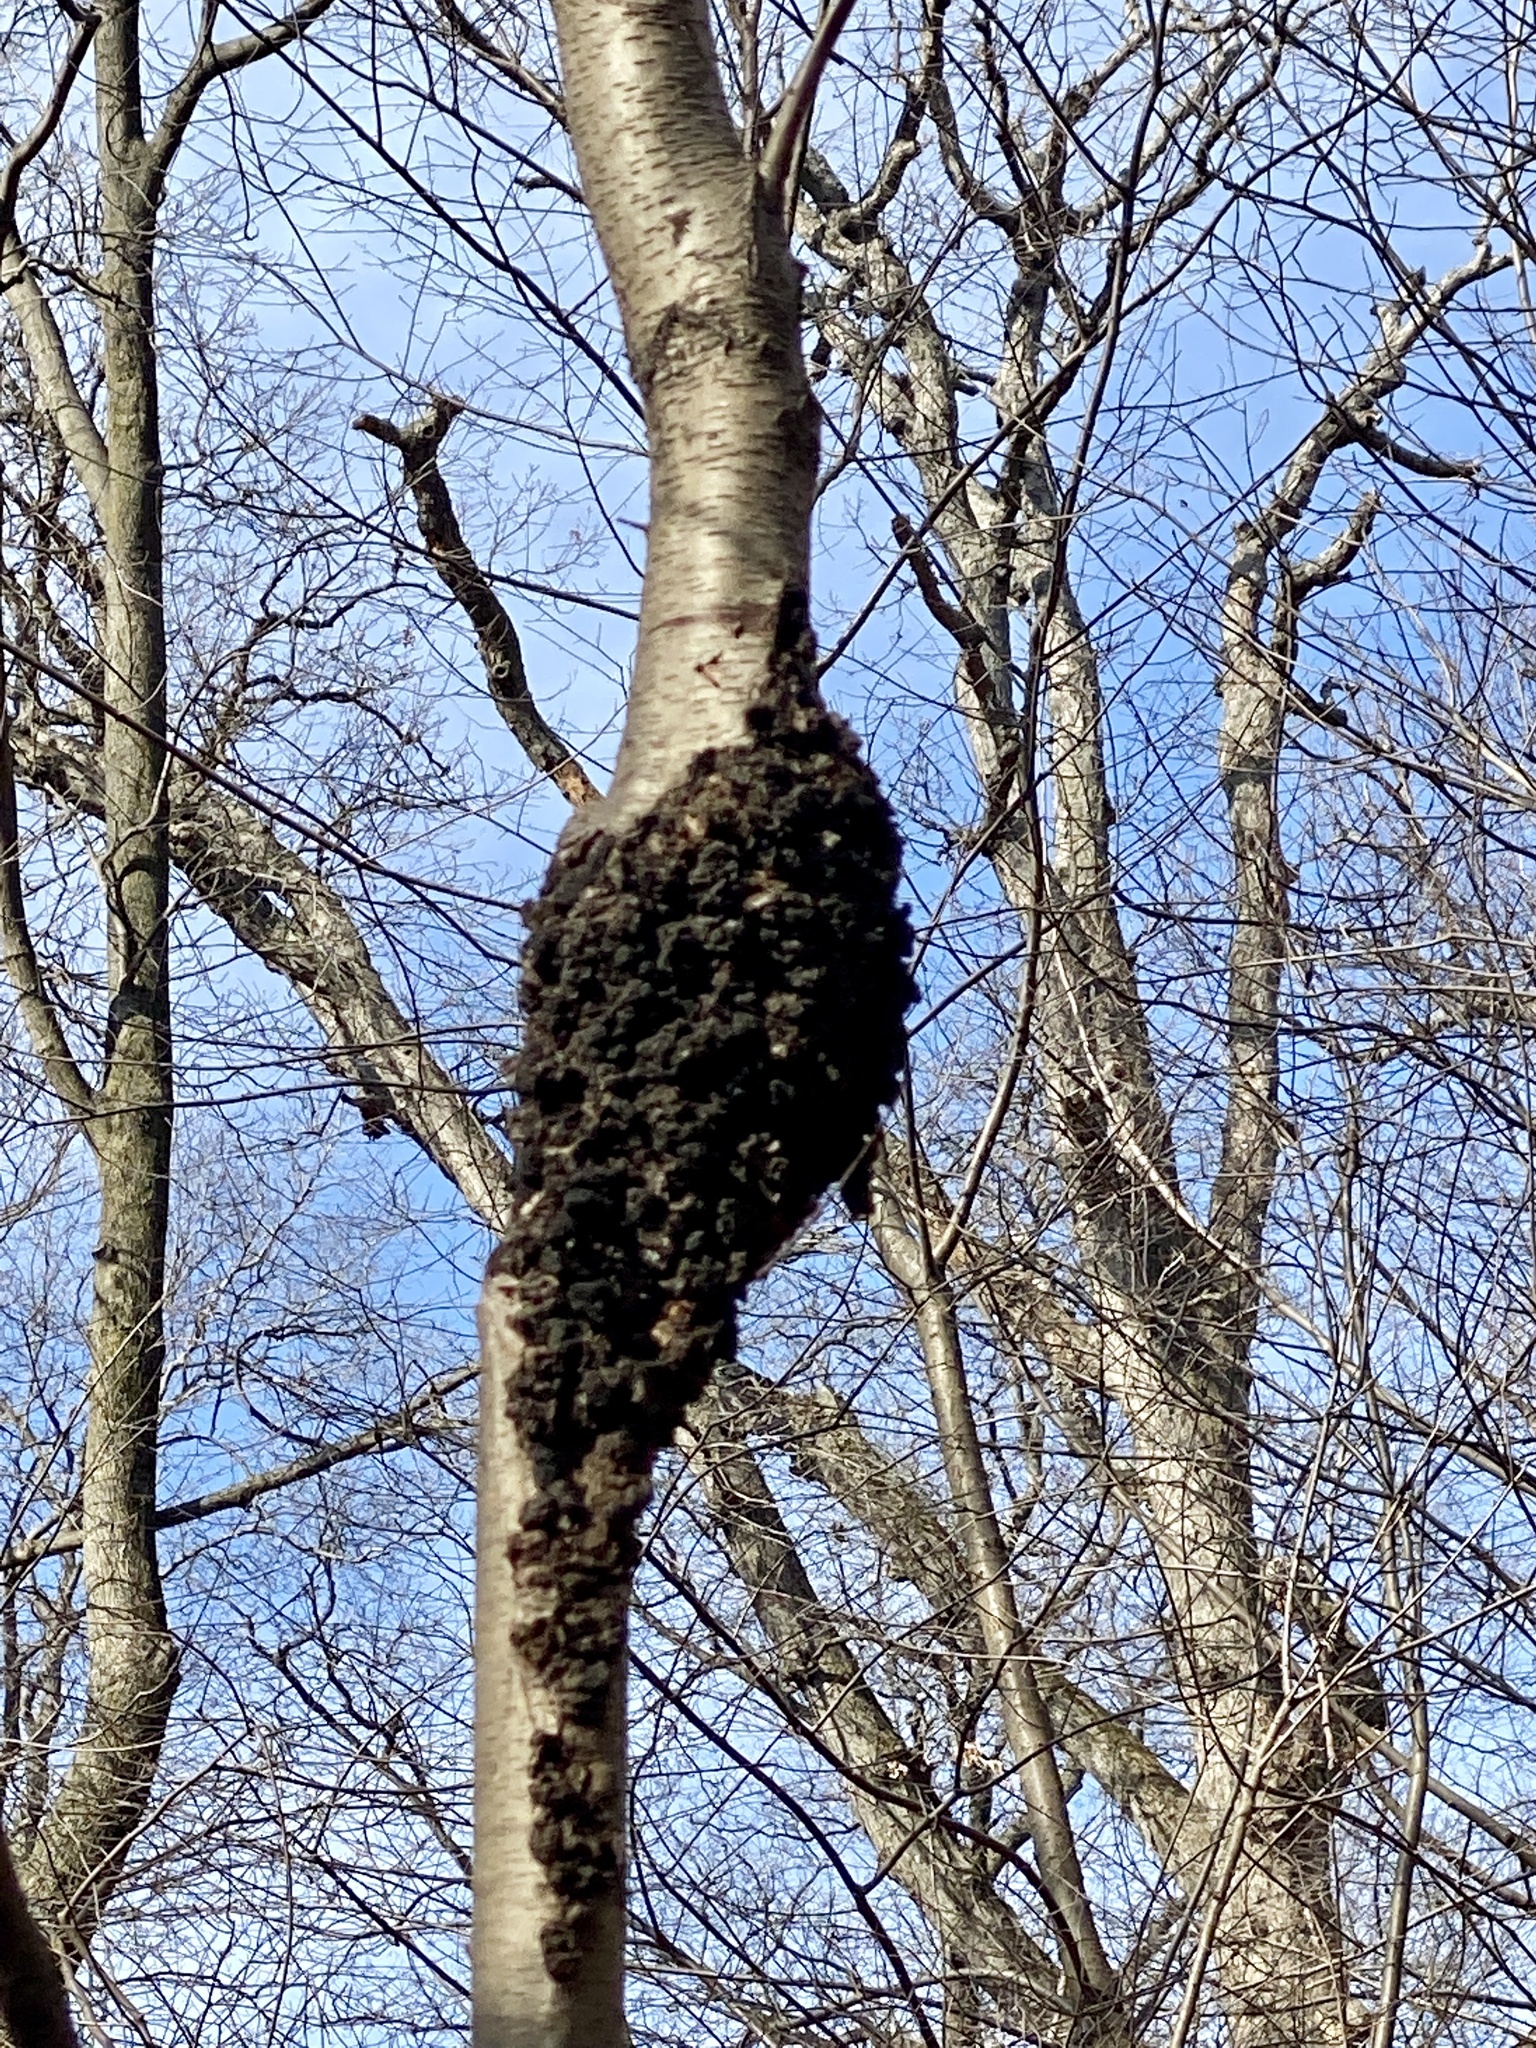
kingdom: Fungi
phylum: Ascomycota
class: Dothideomycetes
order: Venturiales
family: Venturiaceae
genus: Apiosporina
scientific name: Apiosporina morbosa
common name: Black knot
